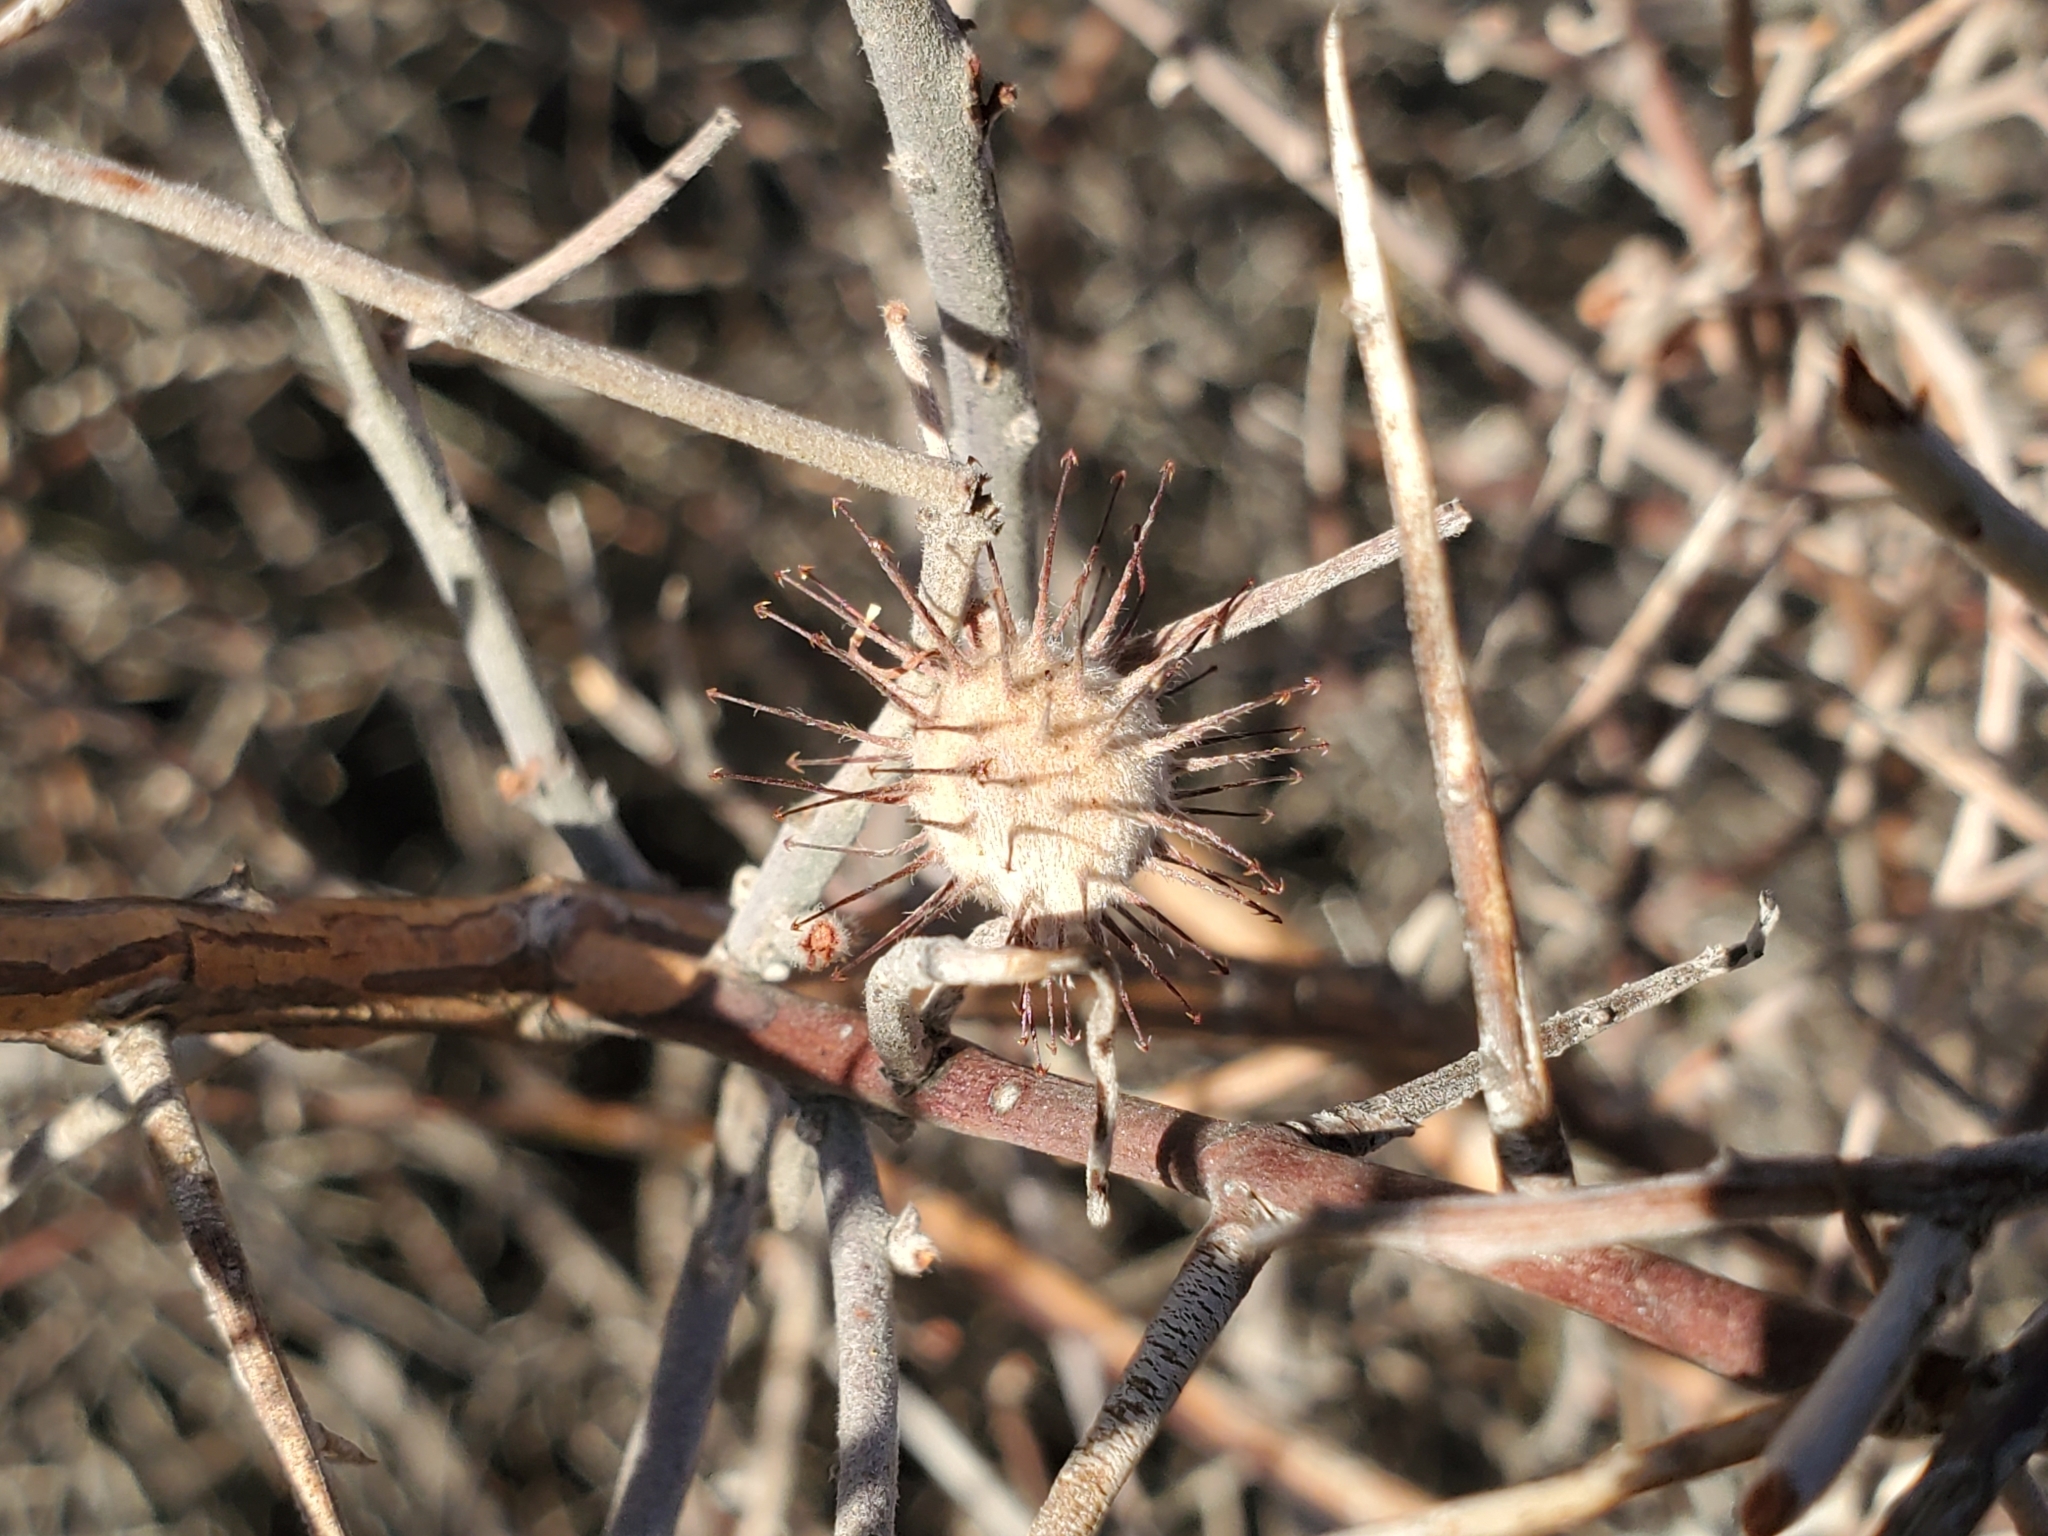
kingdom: Plantae
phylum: Tracheophyta
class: Magnoliopsida
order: Zygophyllales
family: Krameriaceae
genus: Krameria
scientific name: Krameria bicolor
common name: White ratany
